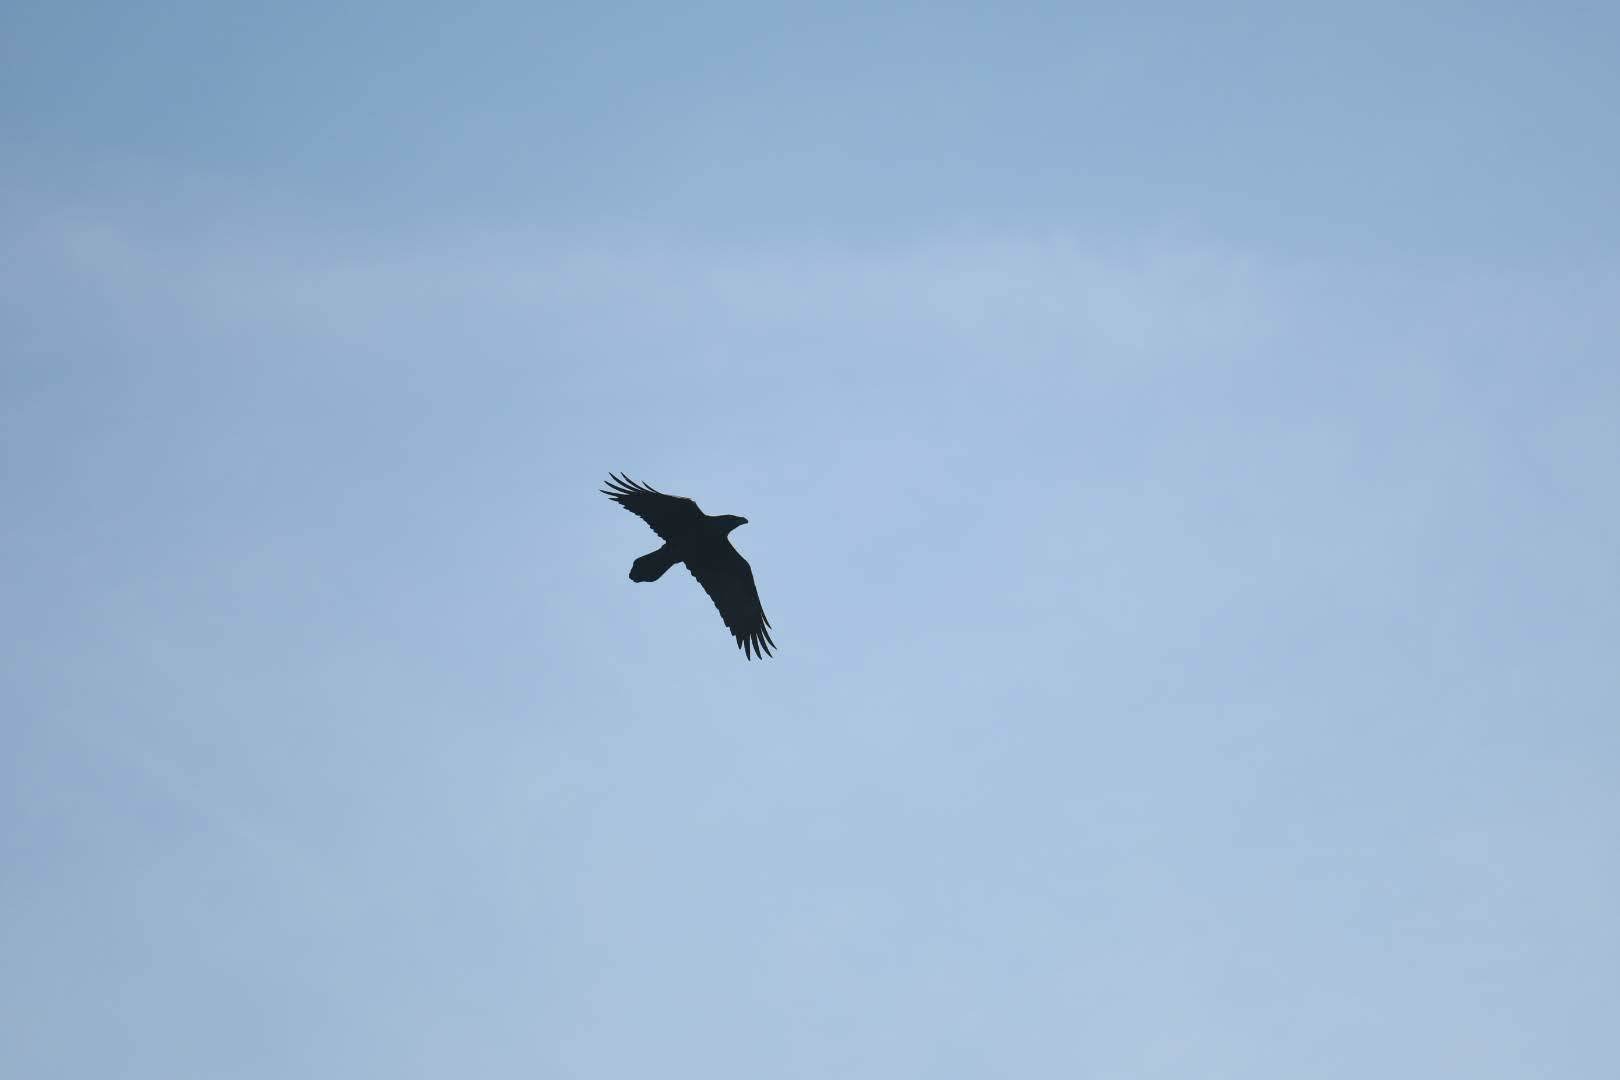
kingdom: Animalia
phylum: Chordata
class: Aves
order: Passeriformes
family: Corvidae
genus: Corvus
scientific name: Corvus corax
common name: Common raven
